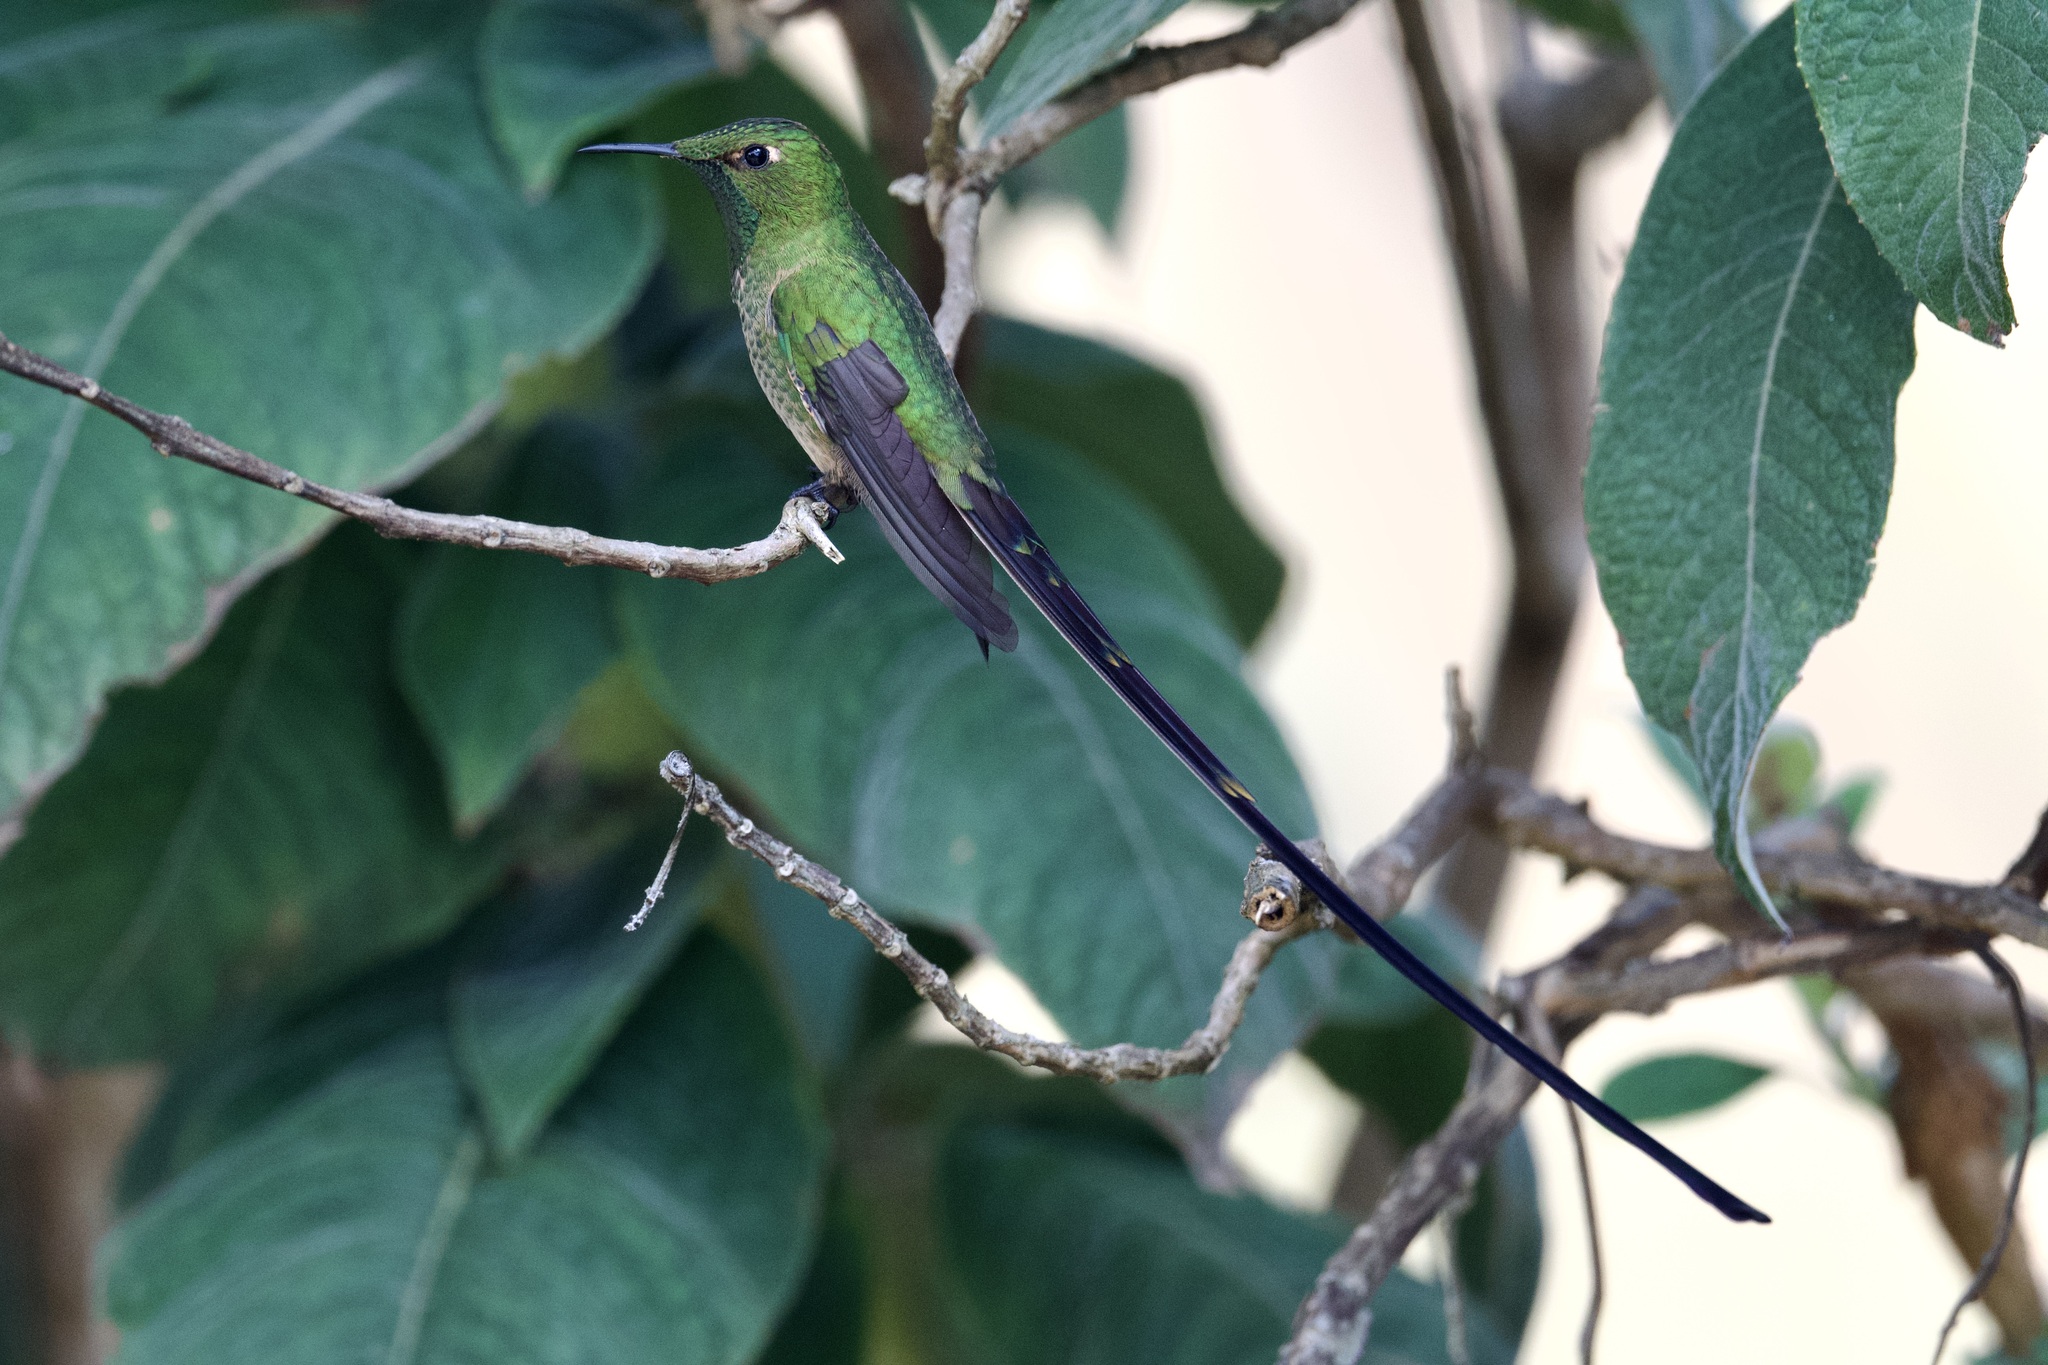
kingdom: Animalia
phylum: Chordata
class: Aves
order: Apodiformes
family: Trochilidae
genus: Lesbia
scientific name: Lesbia victoriae
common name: Black-tailed trainbearer
